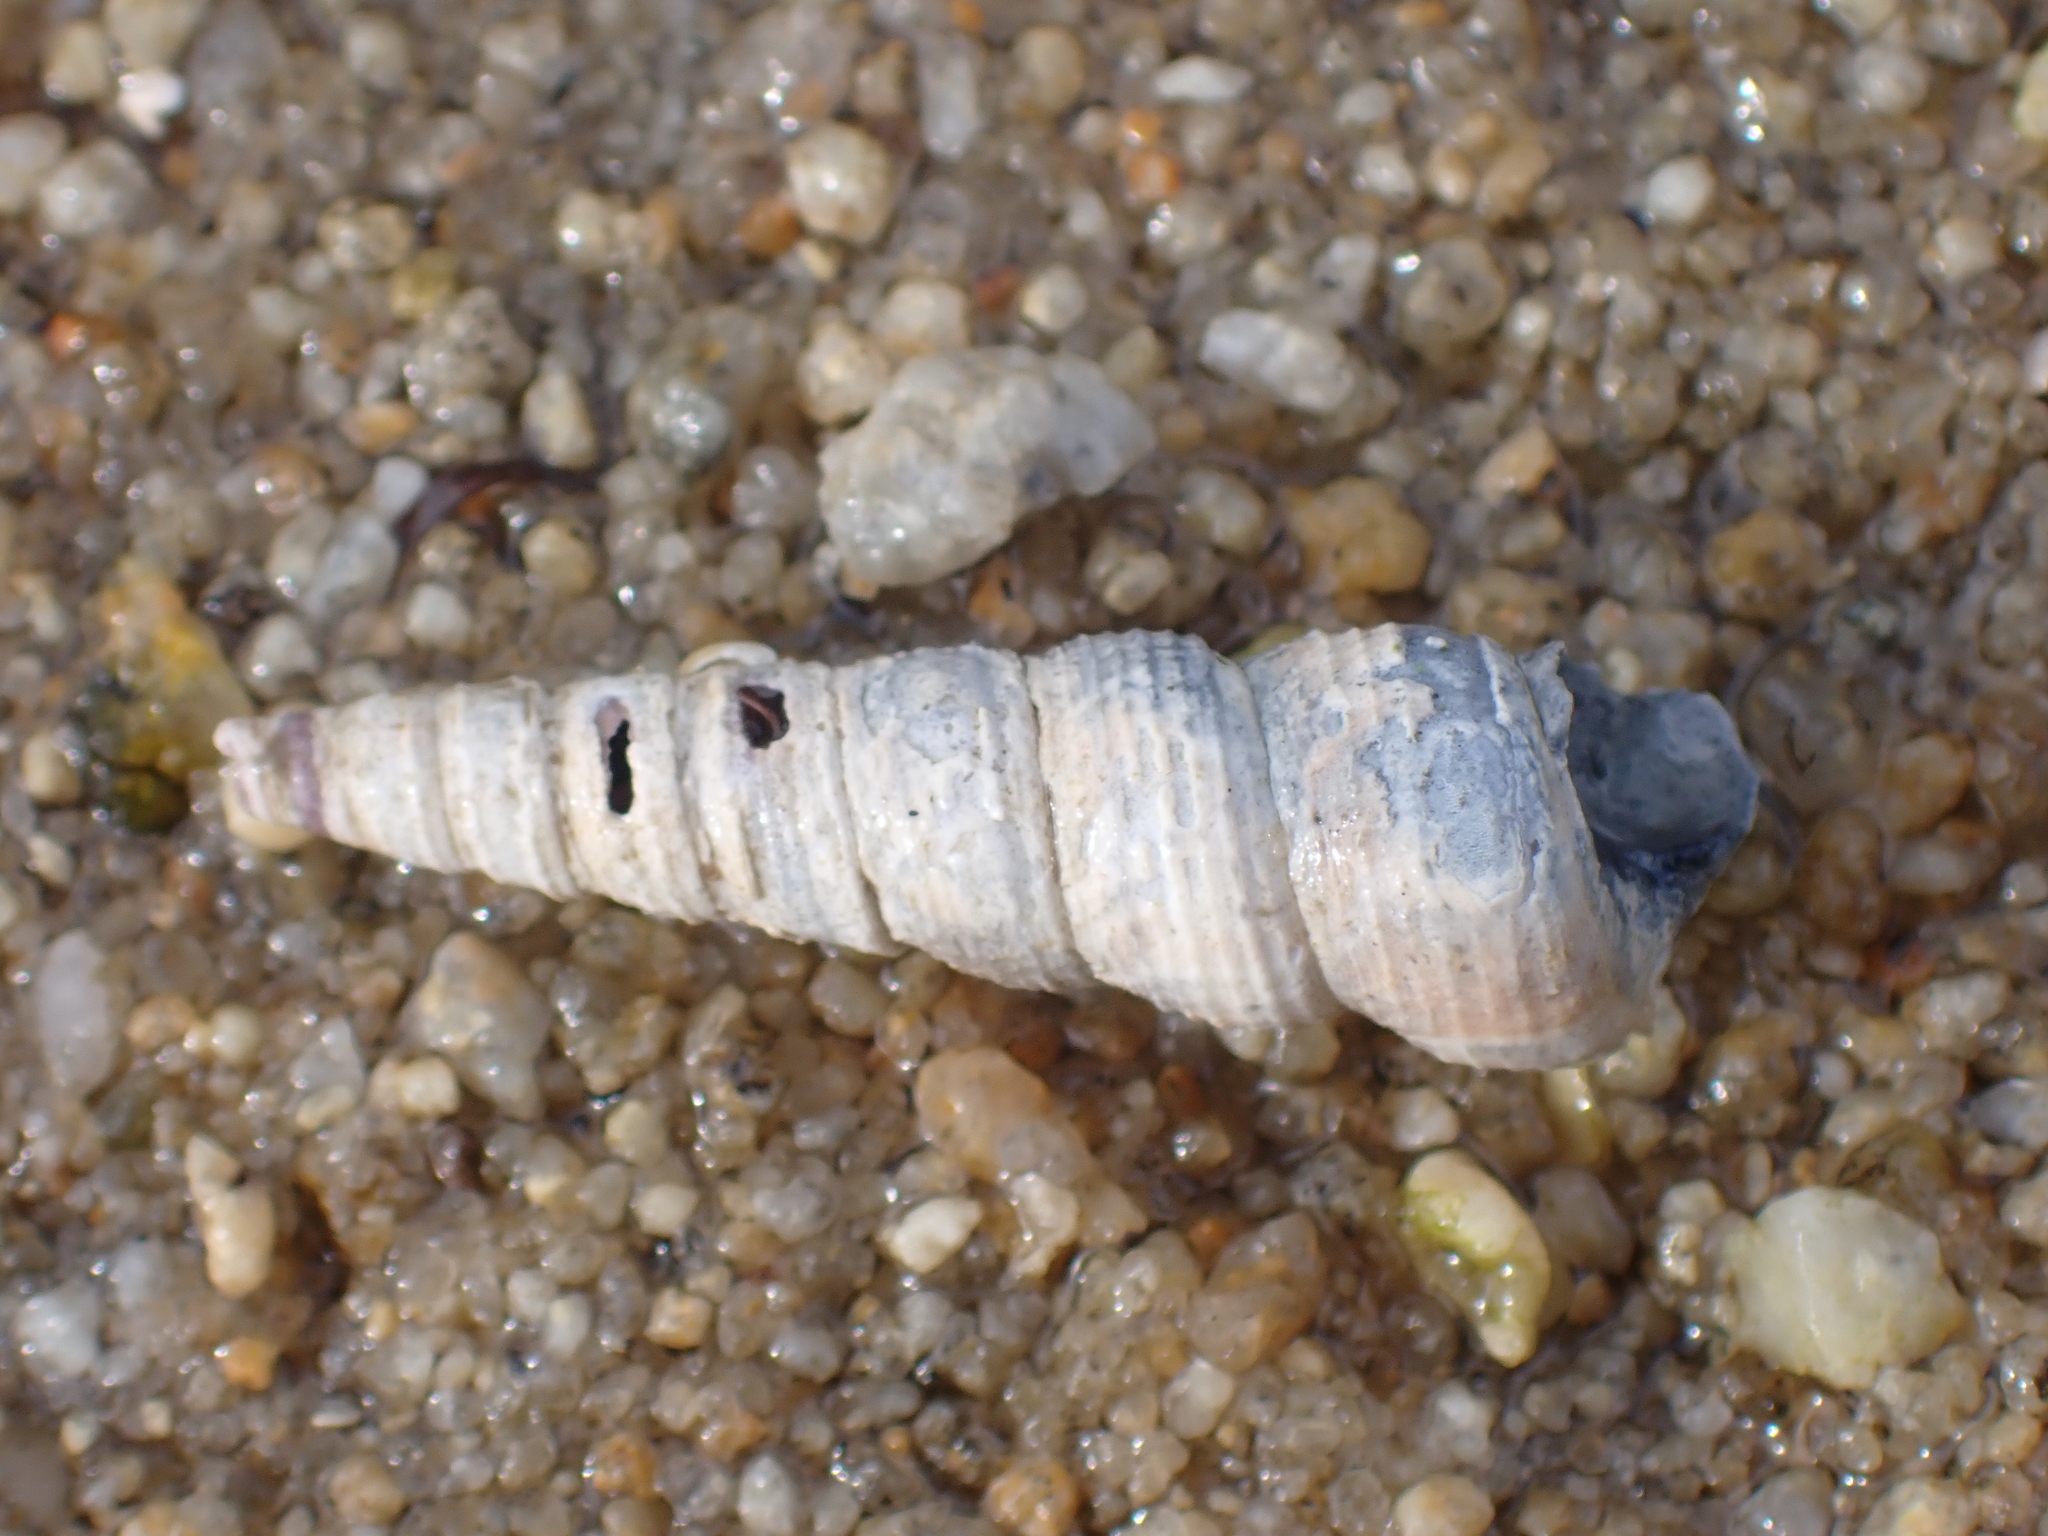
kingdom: Animalia
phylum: Mollusca
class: Gastropoda
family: Turritellidae
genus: Turritellinella
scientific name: Turritellinella tricarinata
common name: Auger shell
